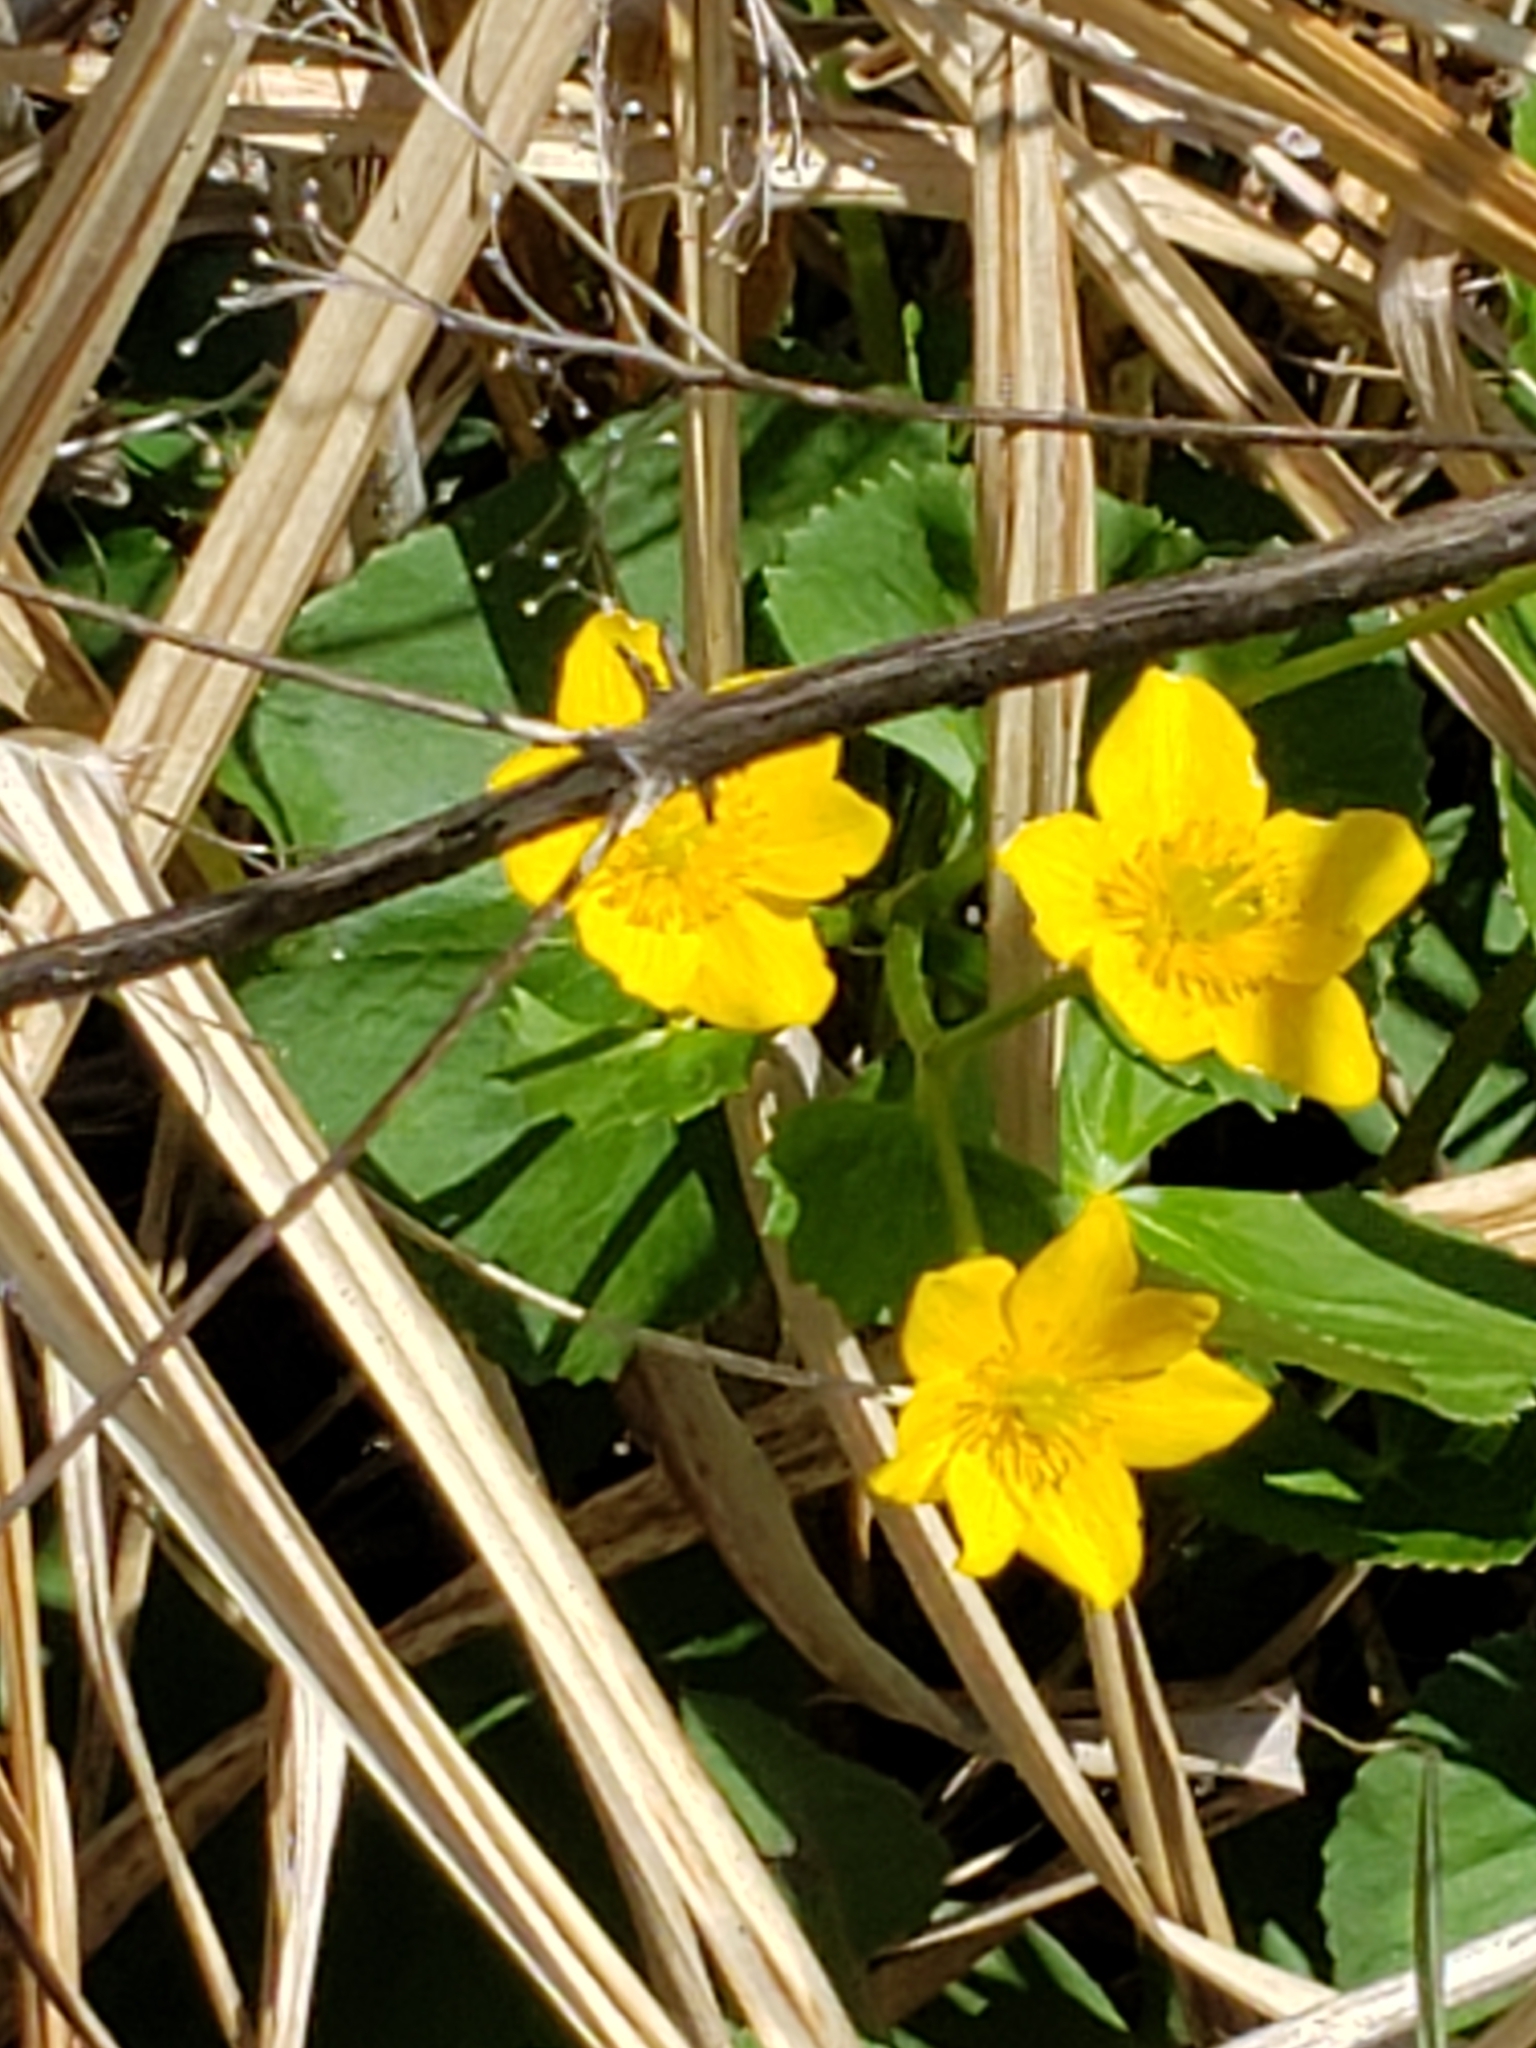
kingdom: Plantae
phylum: Tracheophyta
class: Magnoliopsida
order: Ranunculales
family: Ranunculaceae
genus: Caltha
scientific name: Caltha palustris
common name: Marsh marigold
